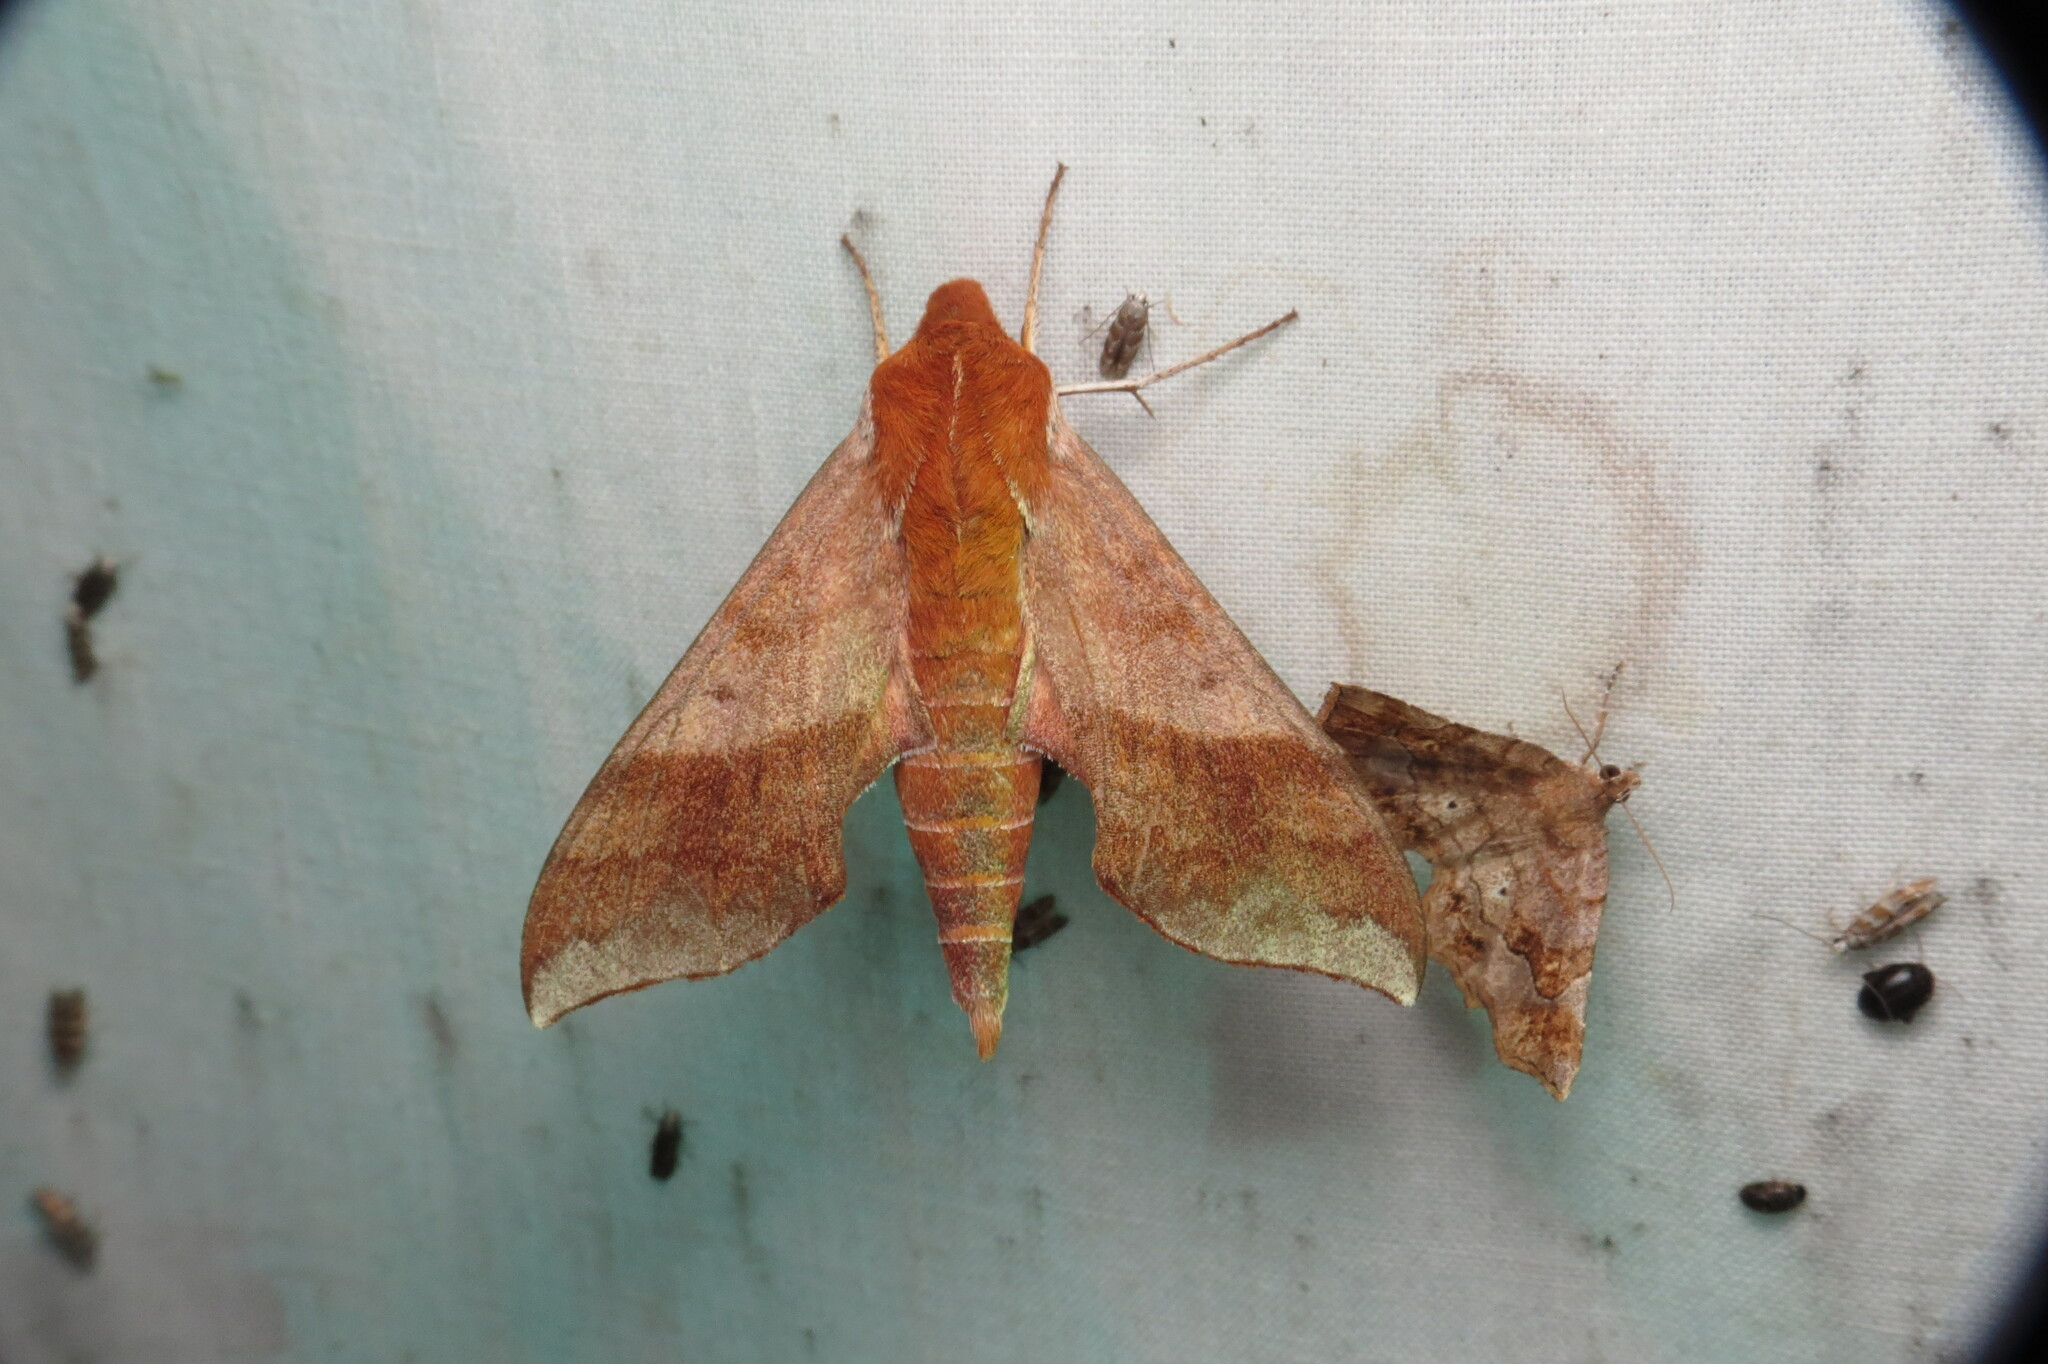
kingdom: Animalia
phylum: Arthropoda
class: Insecta
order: Lepidoptera
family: Sphingidae
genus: Darapsa
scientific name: Darapsa choerilus
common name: Azalea sphinx
